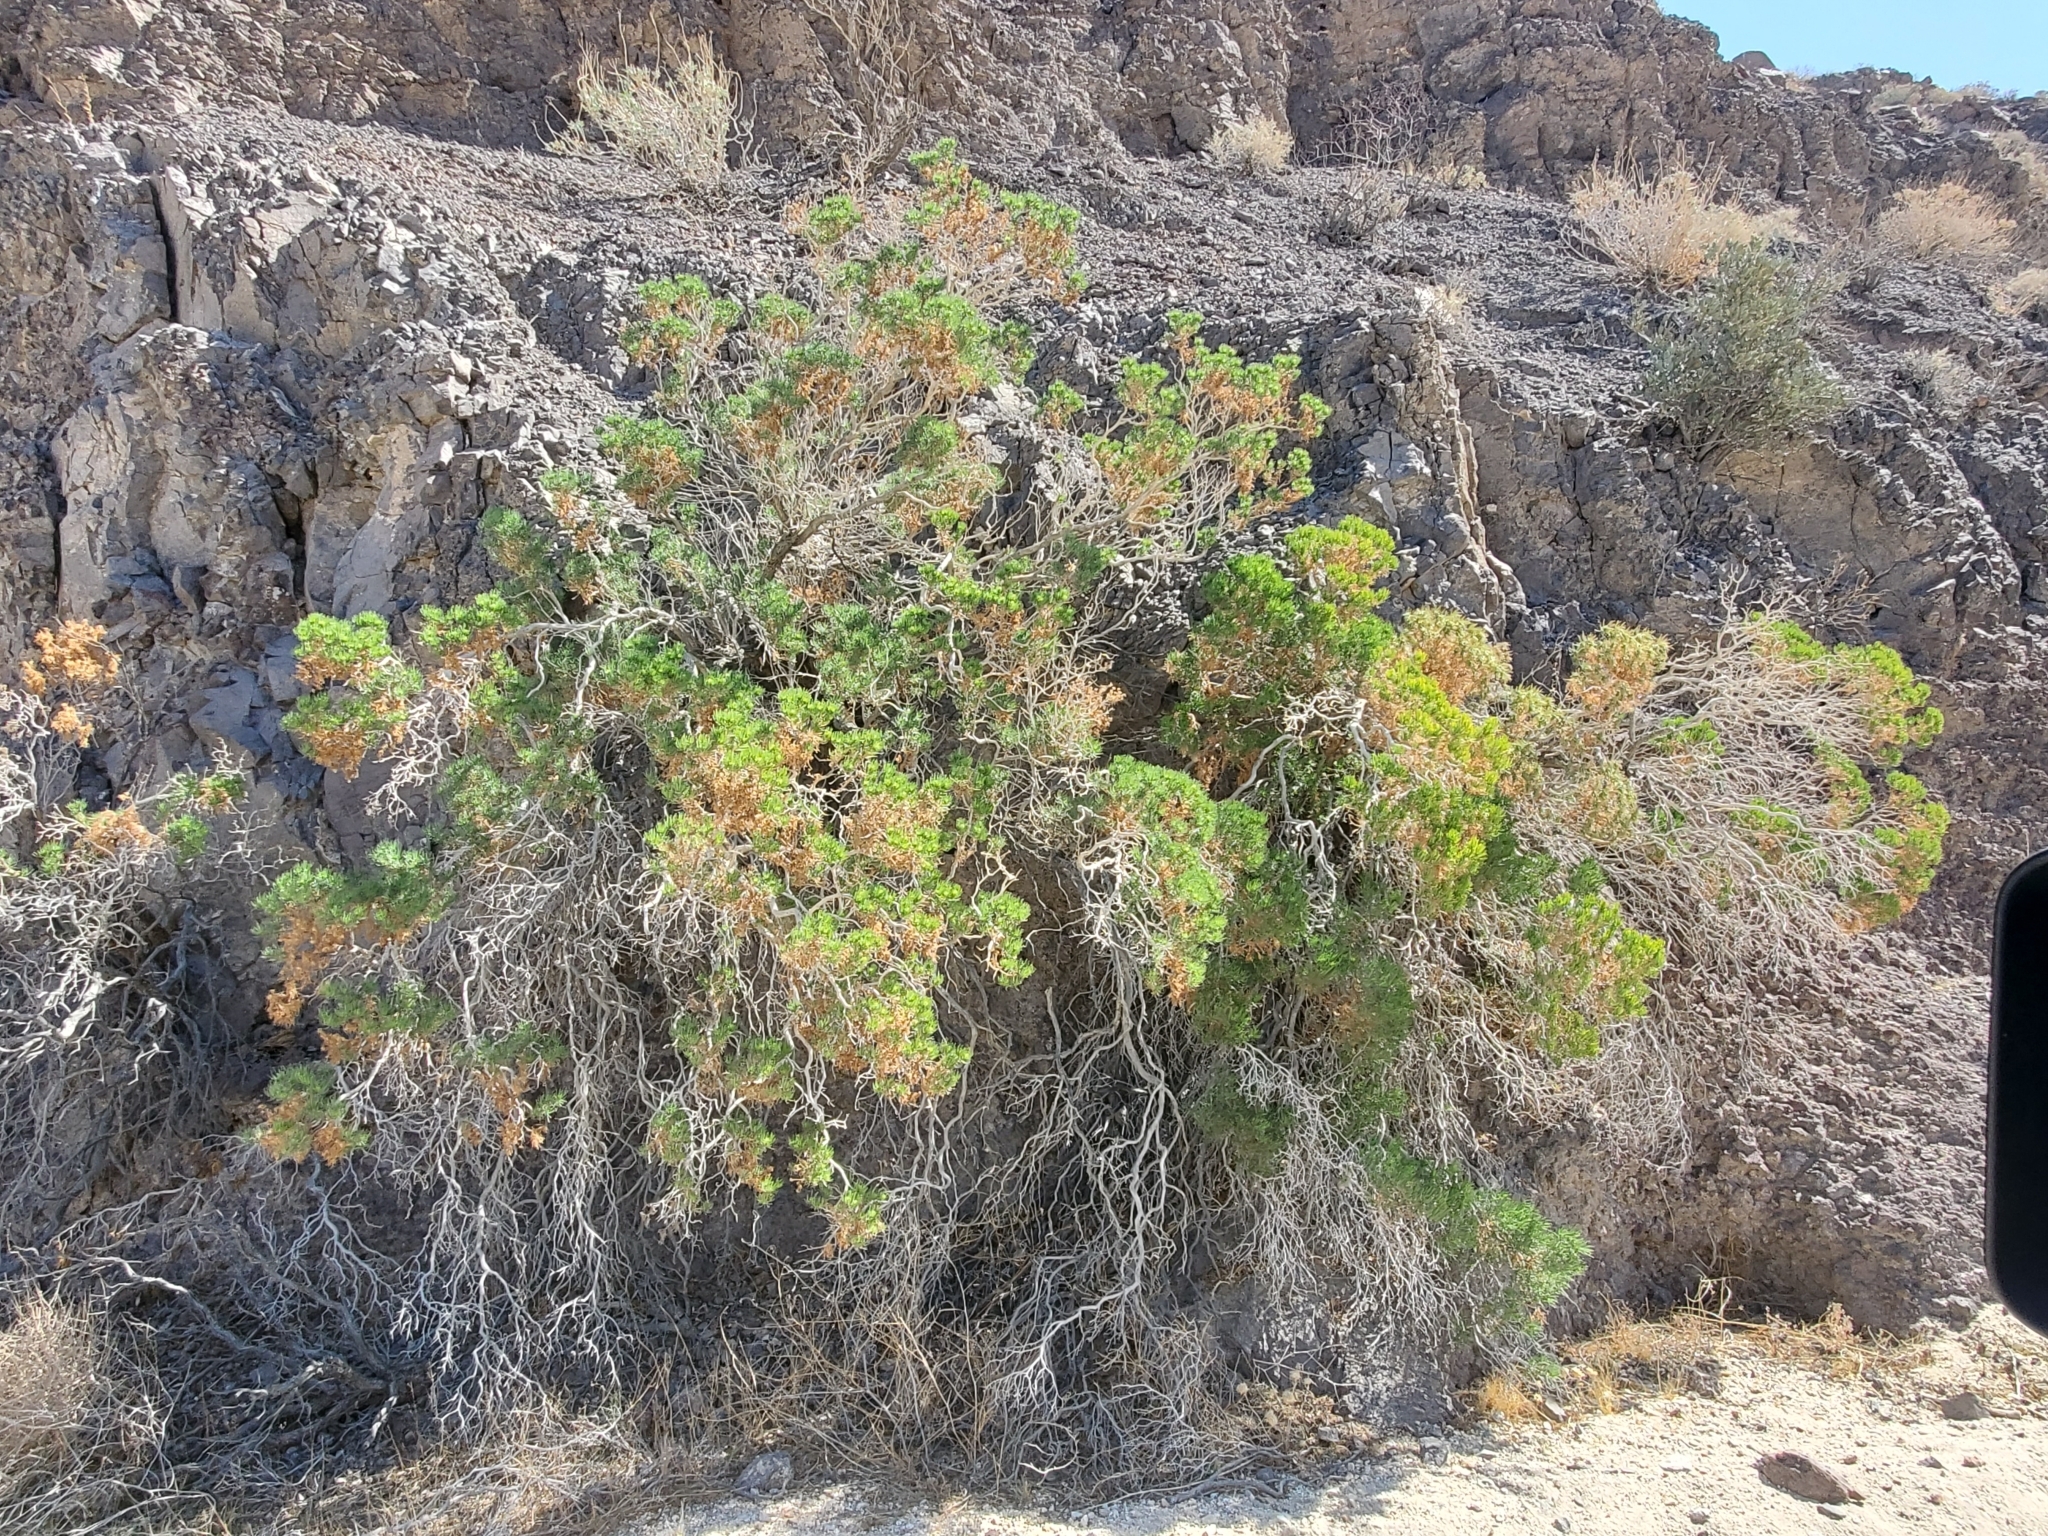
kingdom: Plantae
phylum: Tracheophyta
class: Magnoliopsida
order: Asterales
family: Asteraceae
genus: Peucephyllum
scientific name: Peucephyllum schottii
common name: Pygmy-cedar
